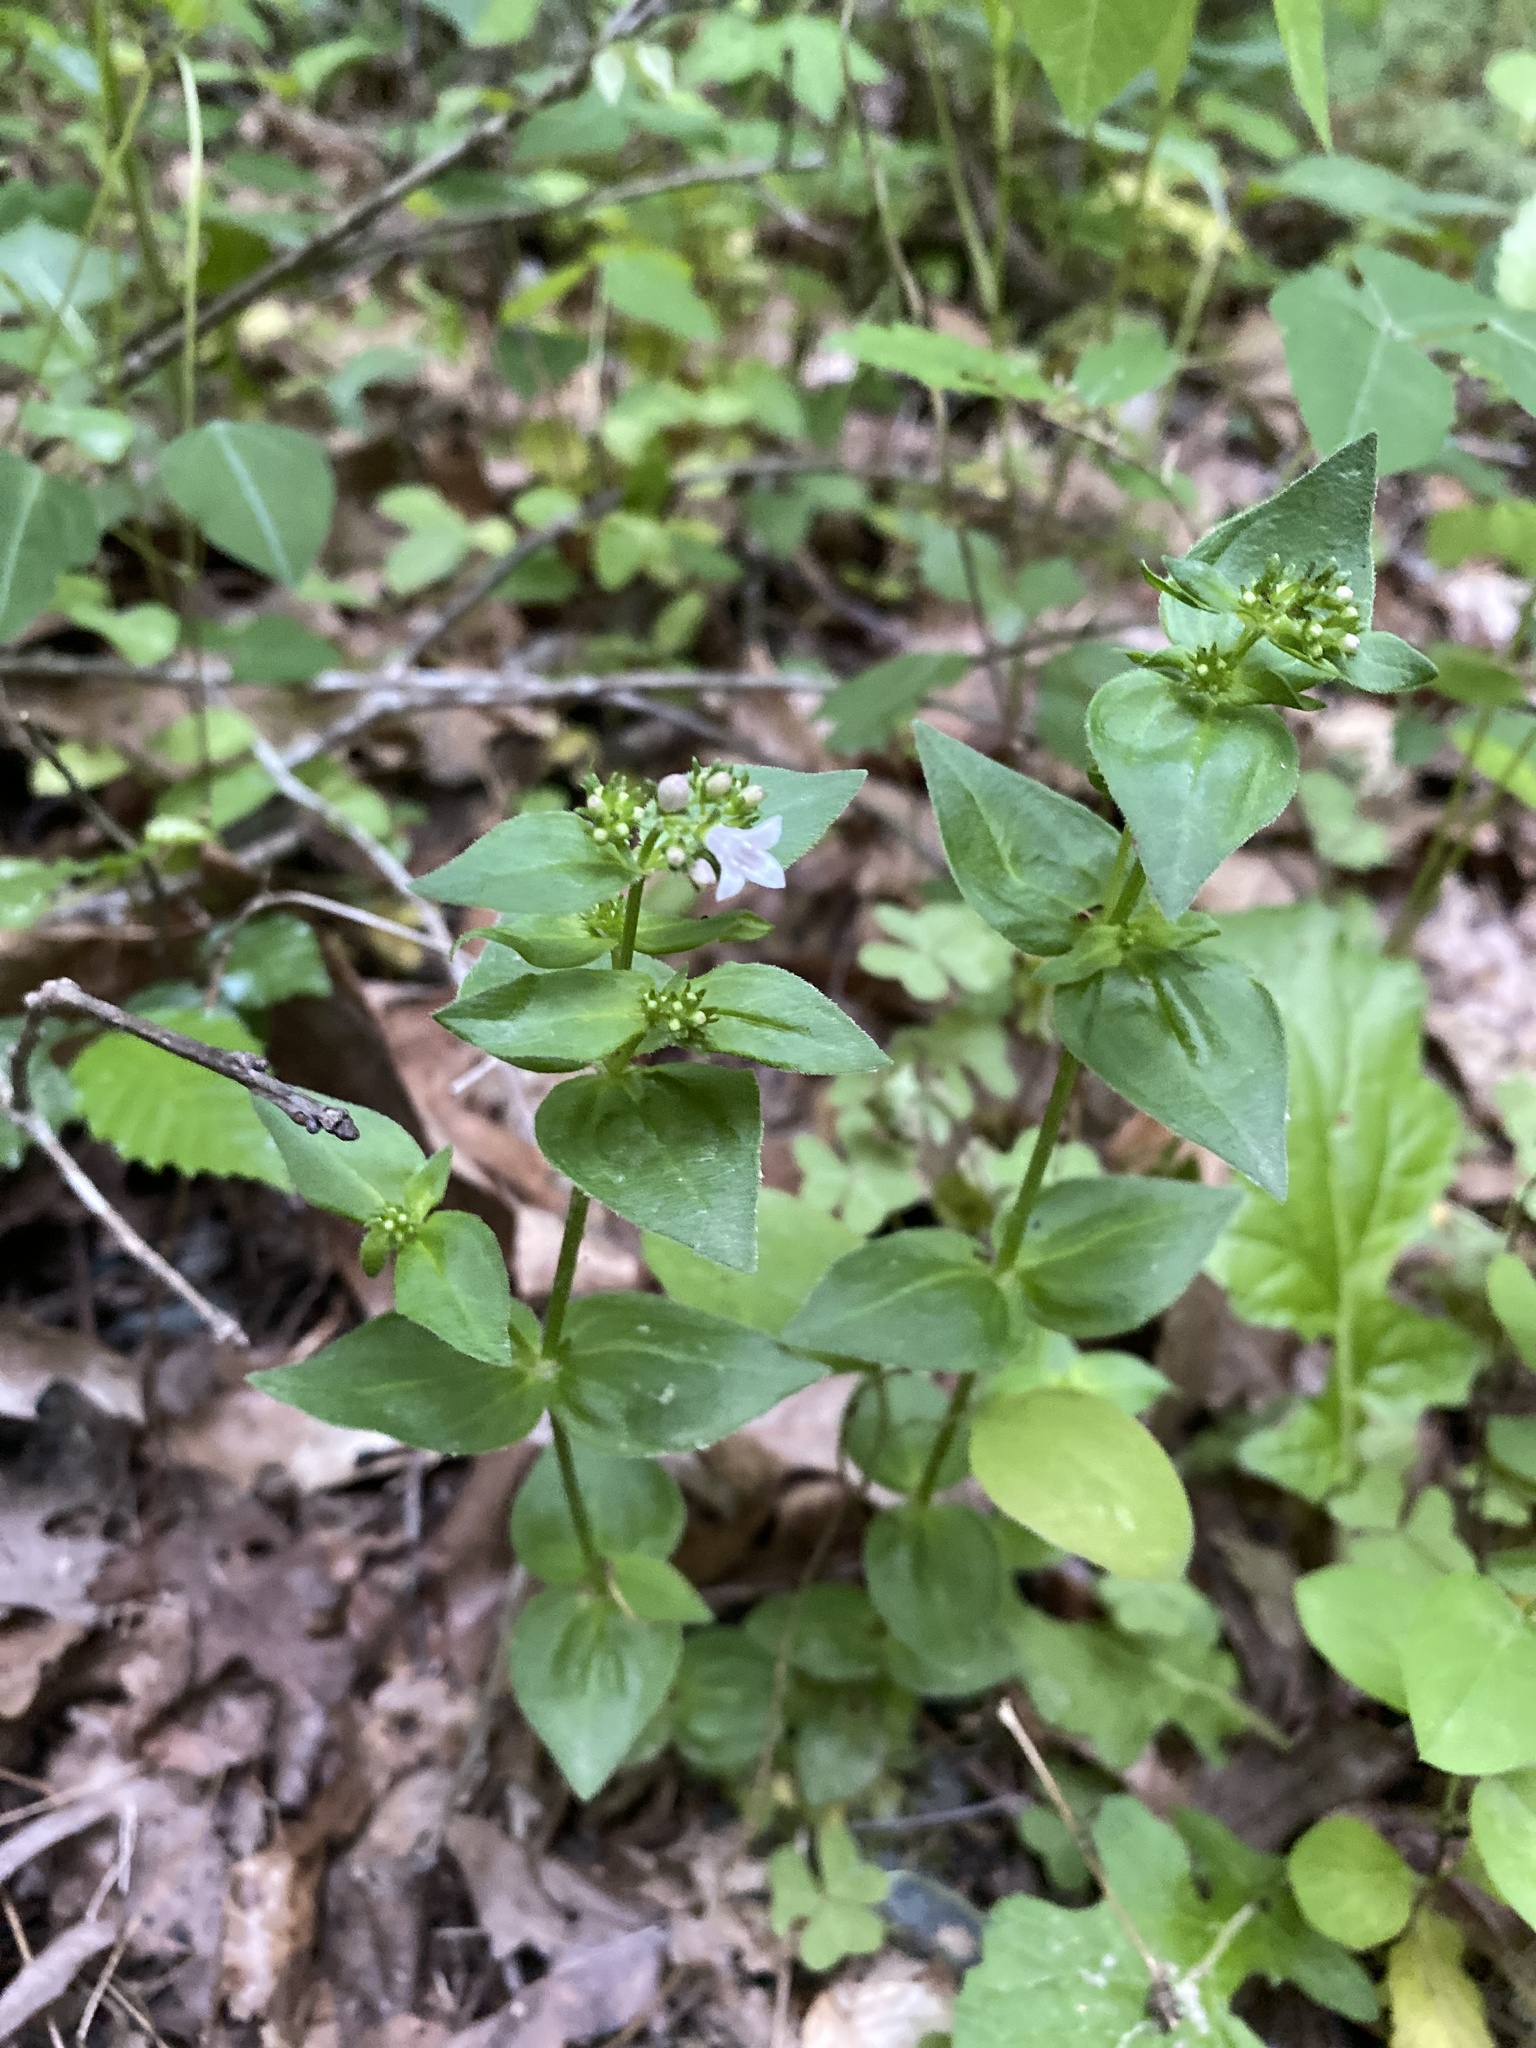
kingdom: Plantae
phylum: Tracheophyta
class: Magnoliopsida
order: Gentianales
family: Rubiaceae
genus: Houstonia
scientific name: Houstonia purpurea
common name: Summer bluet
